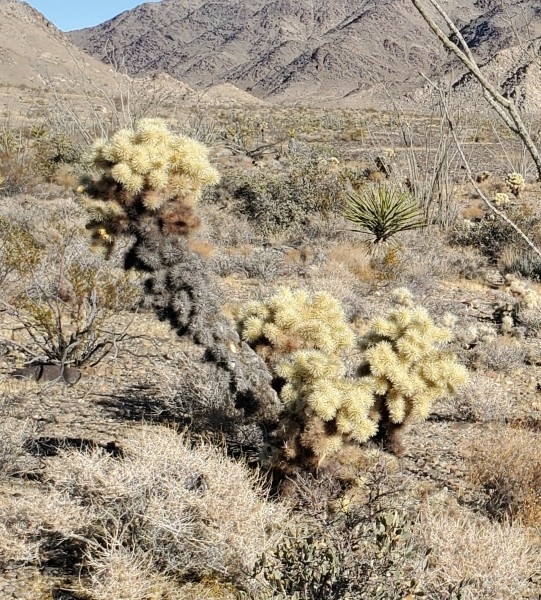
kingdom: Plantae
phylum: Tracheophyta
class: Magnoliopsida
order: Caryophyllales
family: Cactaceae
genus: Cylindropuntia
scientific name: Cylindropuntia fosbergii
